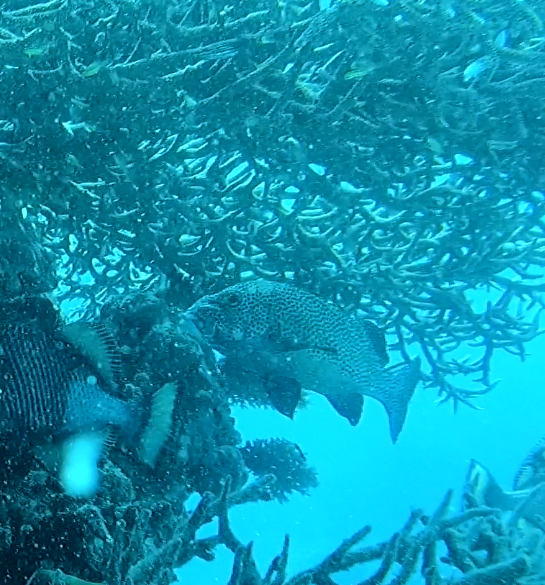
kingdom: Animalia
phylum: Chordata
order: Perciformes
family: Haemulidae
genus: Plectorhinchus
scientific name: Plectorhinchus chaetodonoides
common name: Harlequin sweetlips
